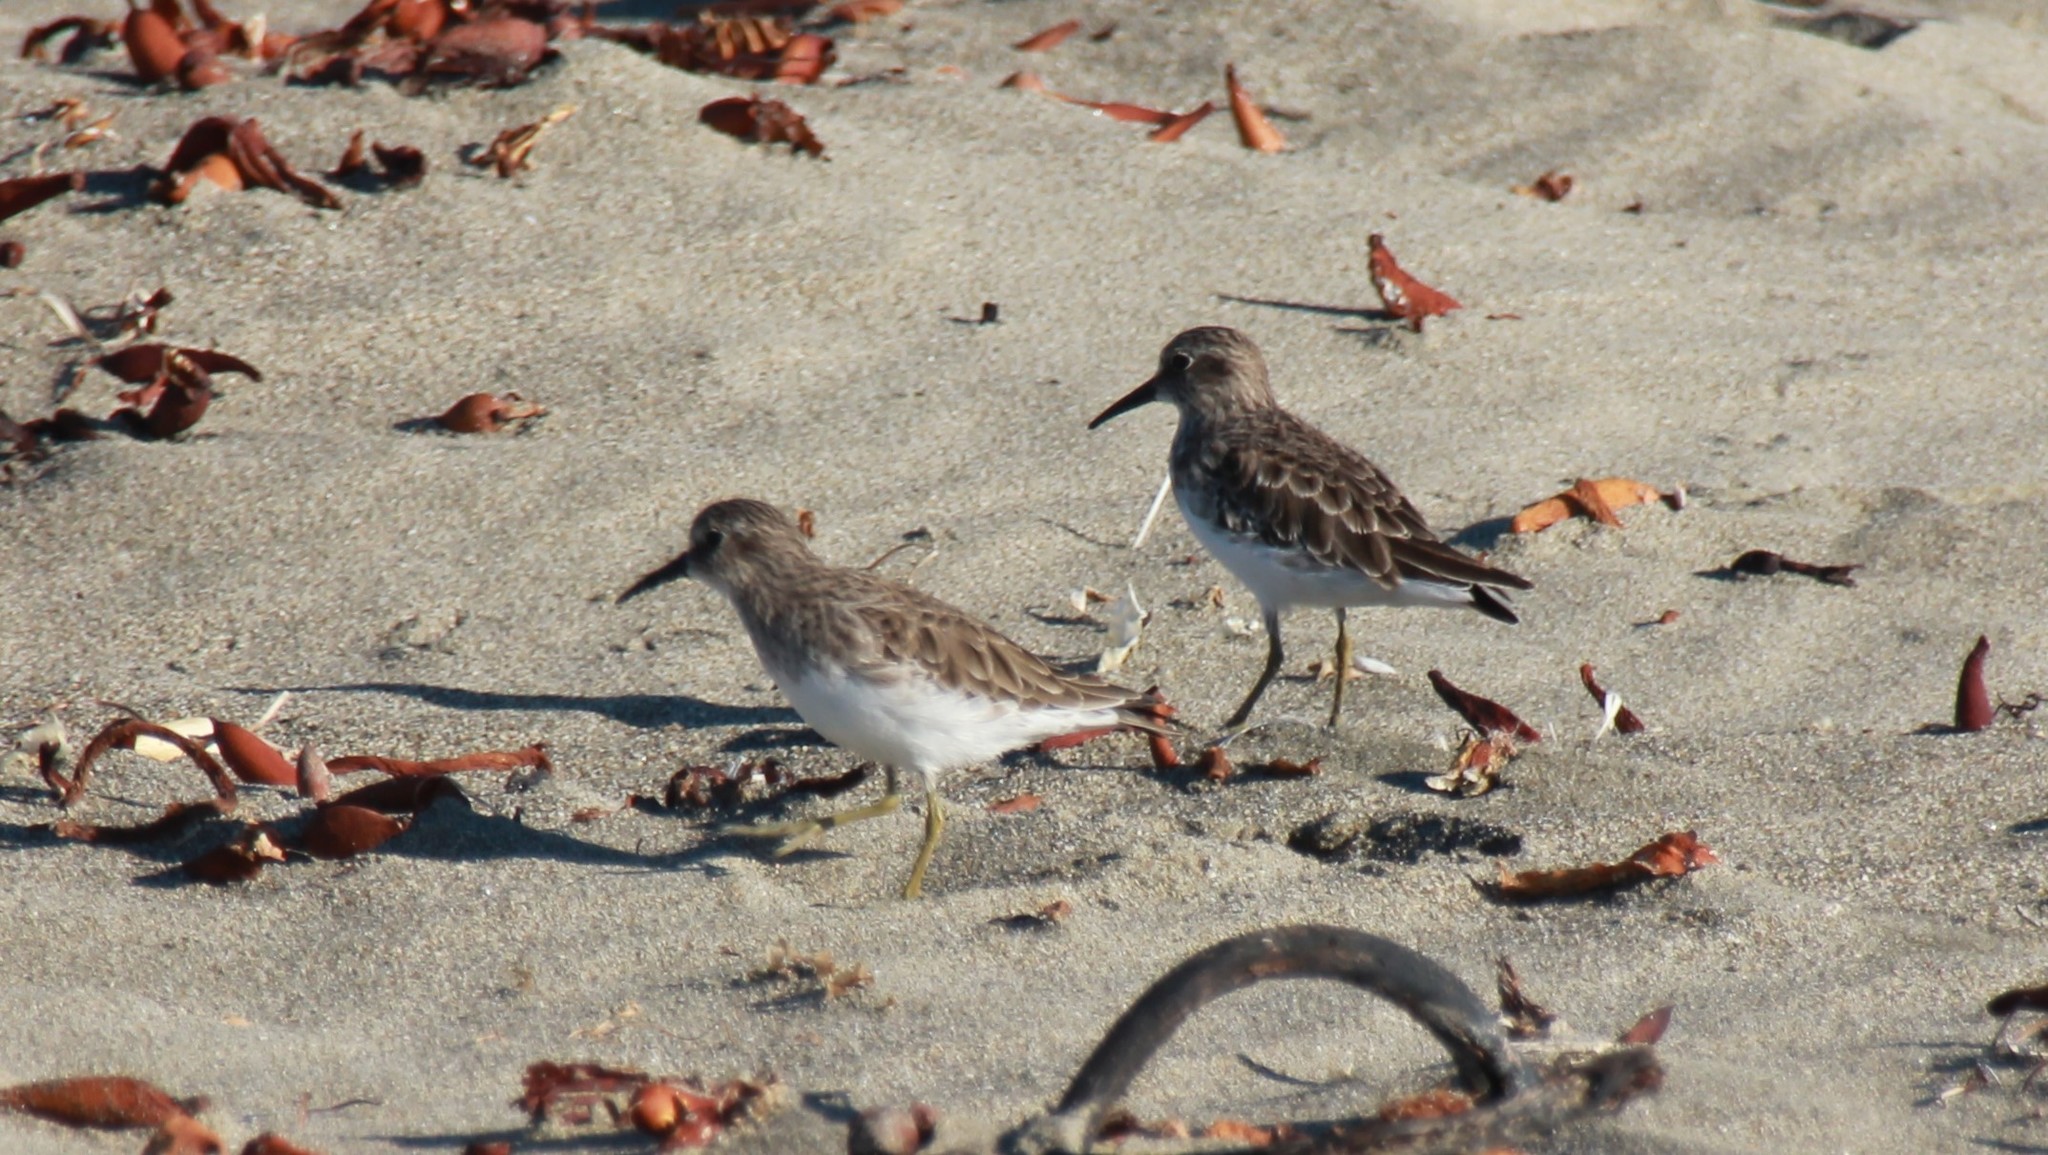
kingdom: Animalia
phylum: Chordata
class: Aves
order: Charadriiformes
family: Scolopacidae
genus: Calidris
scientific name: Calidris minutilla
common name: Least sandpiper
